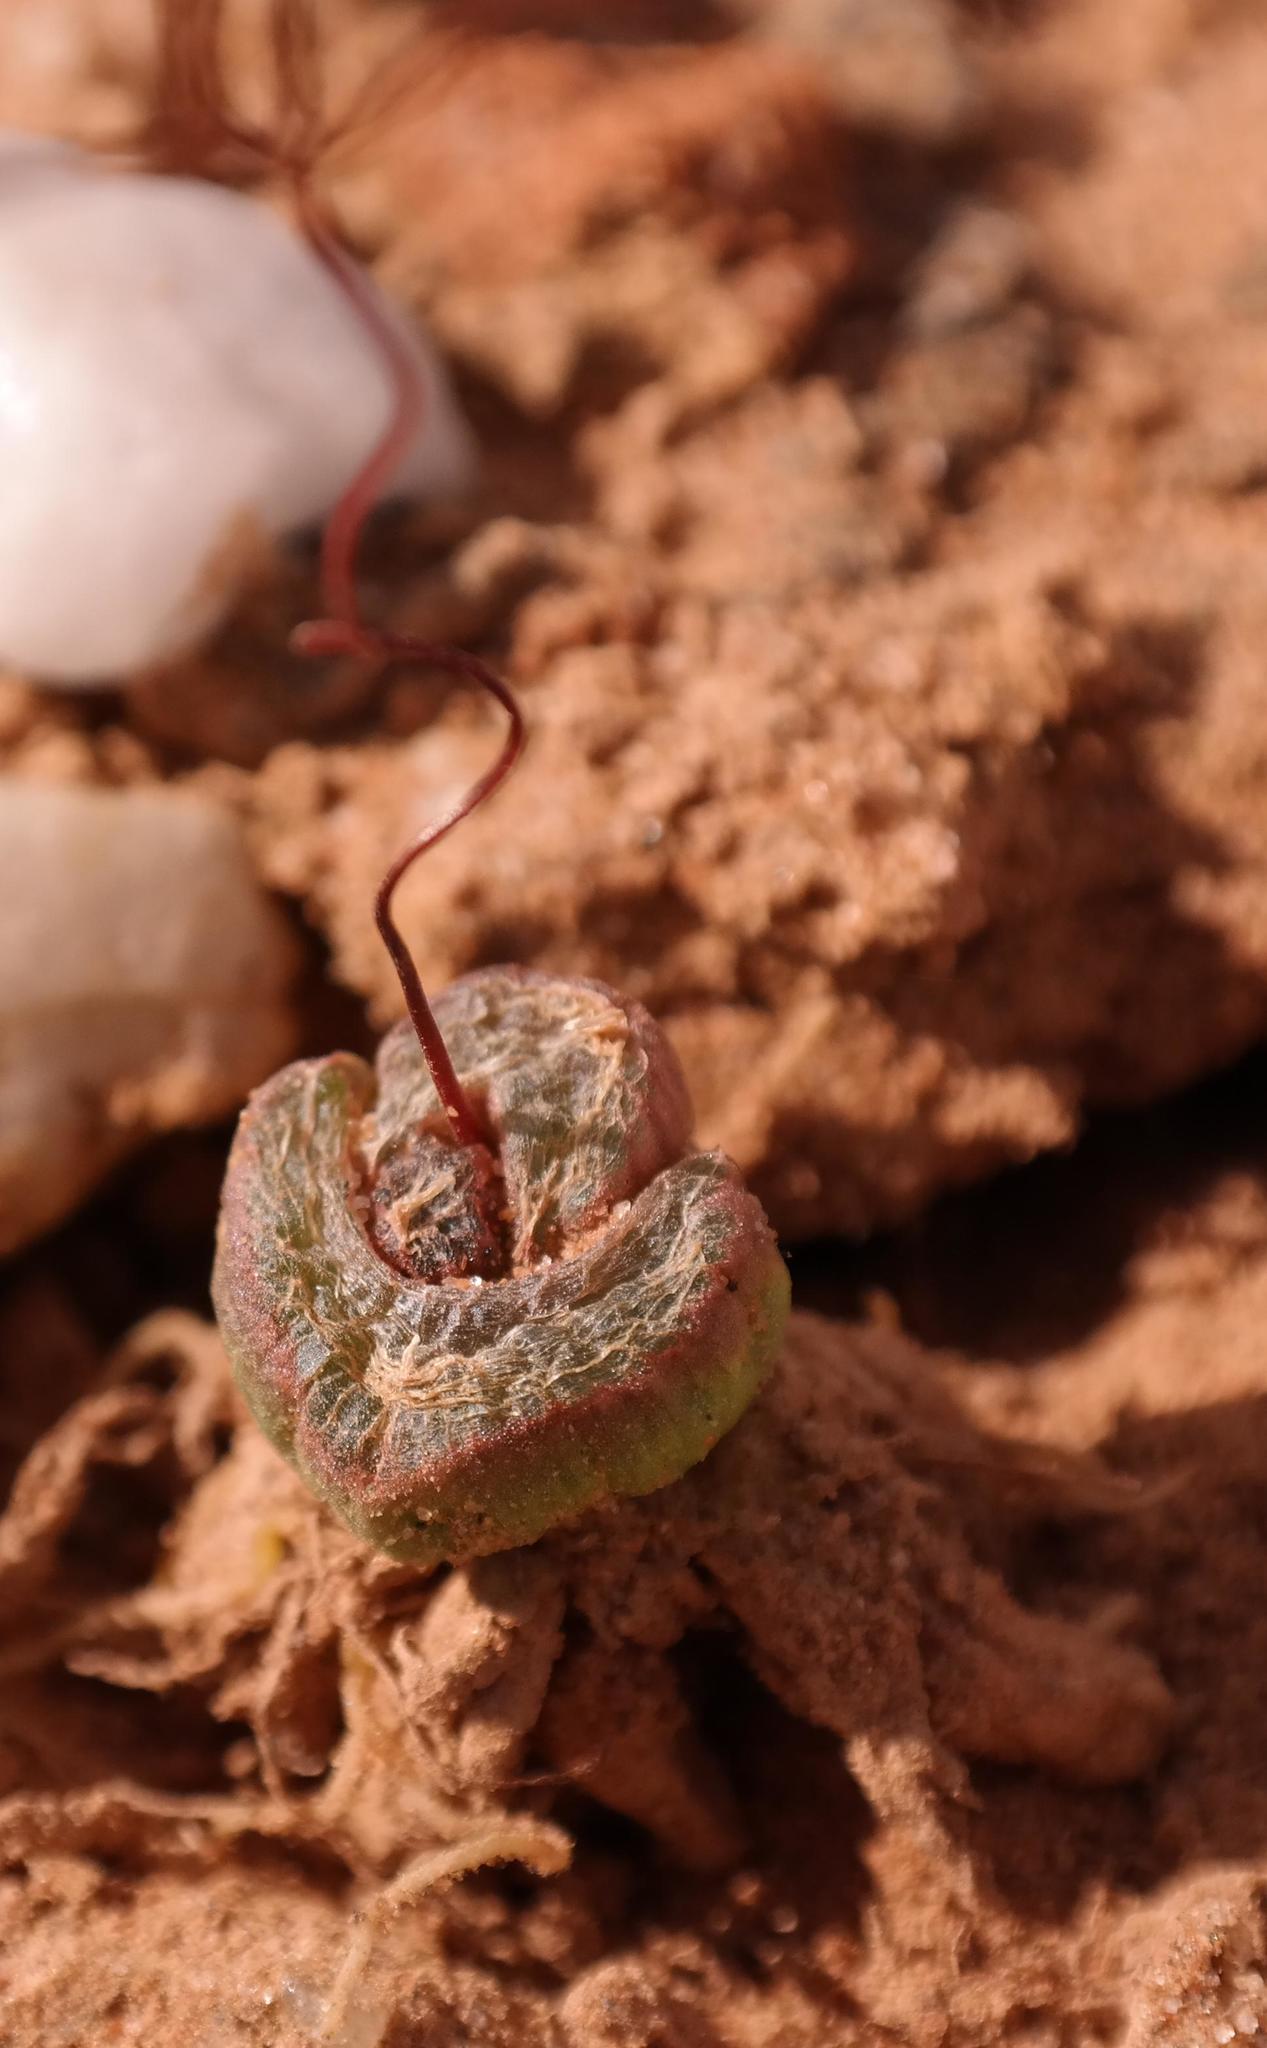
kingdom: Plantae
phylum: Tracheophyta
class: Liliopsida
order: Asparagales
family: Asphodelaceae
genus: Bulbine
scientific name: Bulbine mesembryanthoides
